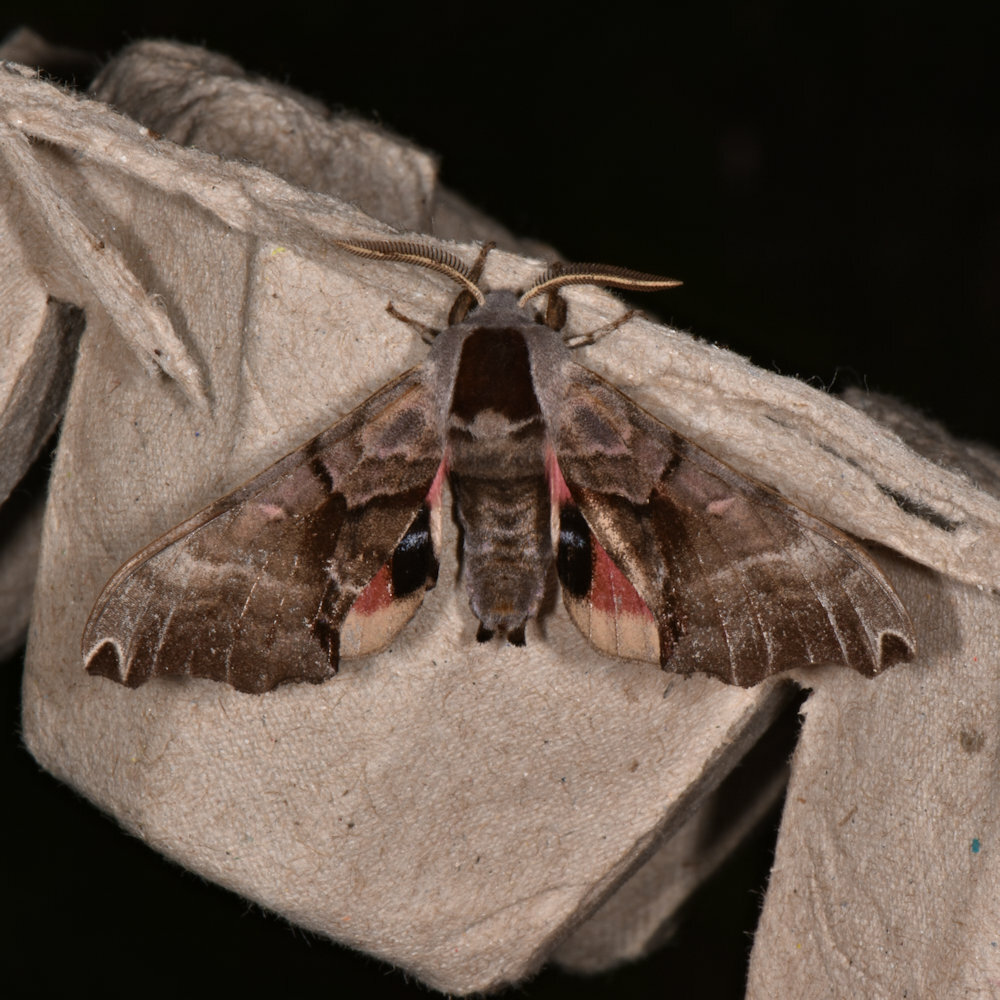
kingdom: Animalia
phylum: Arthropoda
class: Insecta
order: Lepidoptera
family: Sphingidae
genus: Smerinthus
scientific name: Smerinthus jamaicensis
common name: Twin spotted sphinx
